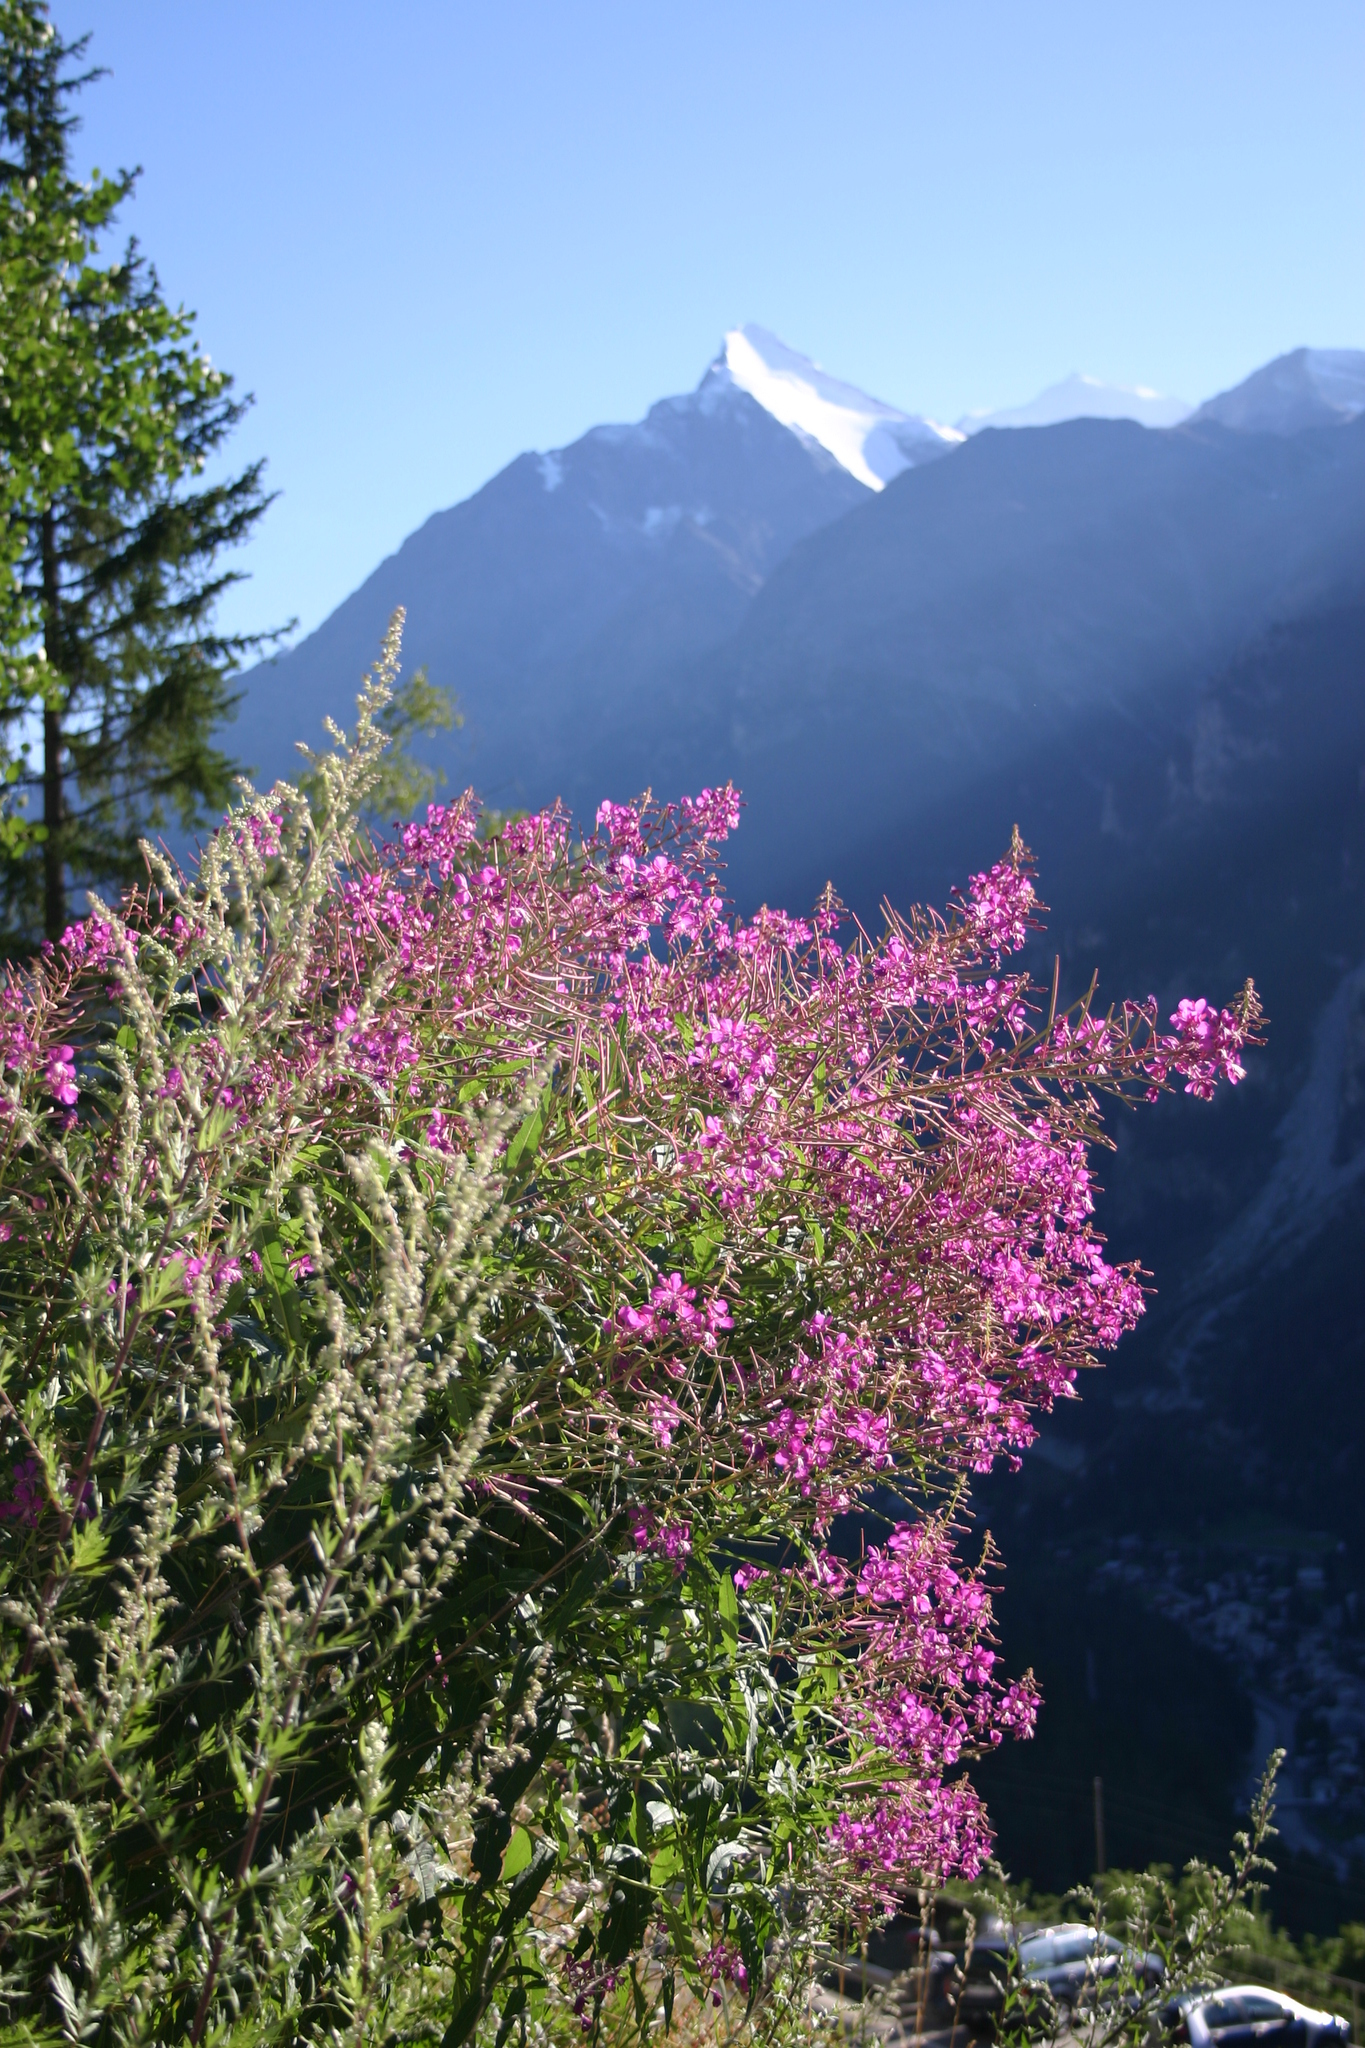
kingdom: Plantae
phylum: Tracheophyta
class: Magnoliopsida
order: Myrtales
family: Onagraceae
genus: Chamaenerion
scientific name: Chamaenerion angustifolium
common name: Fireweed
